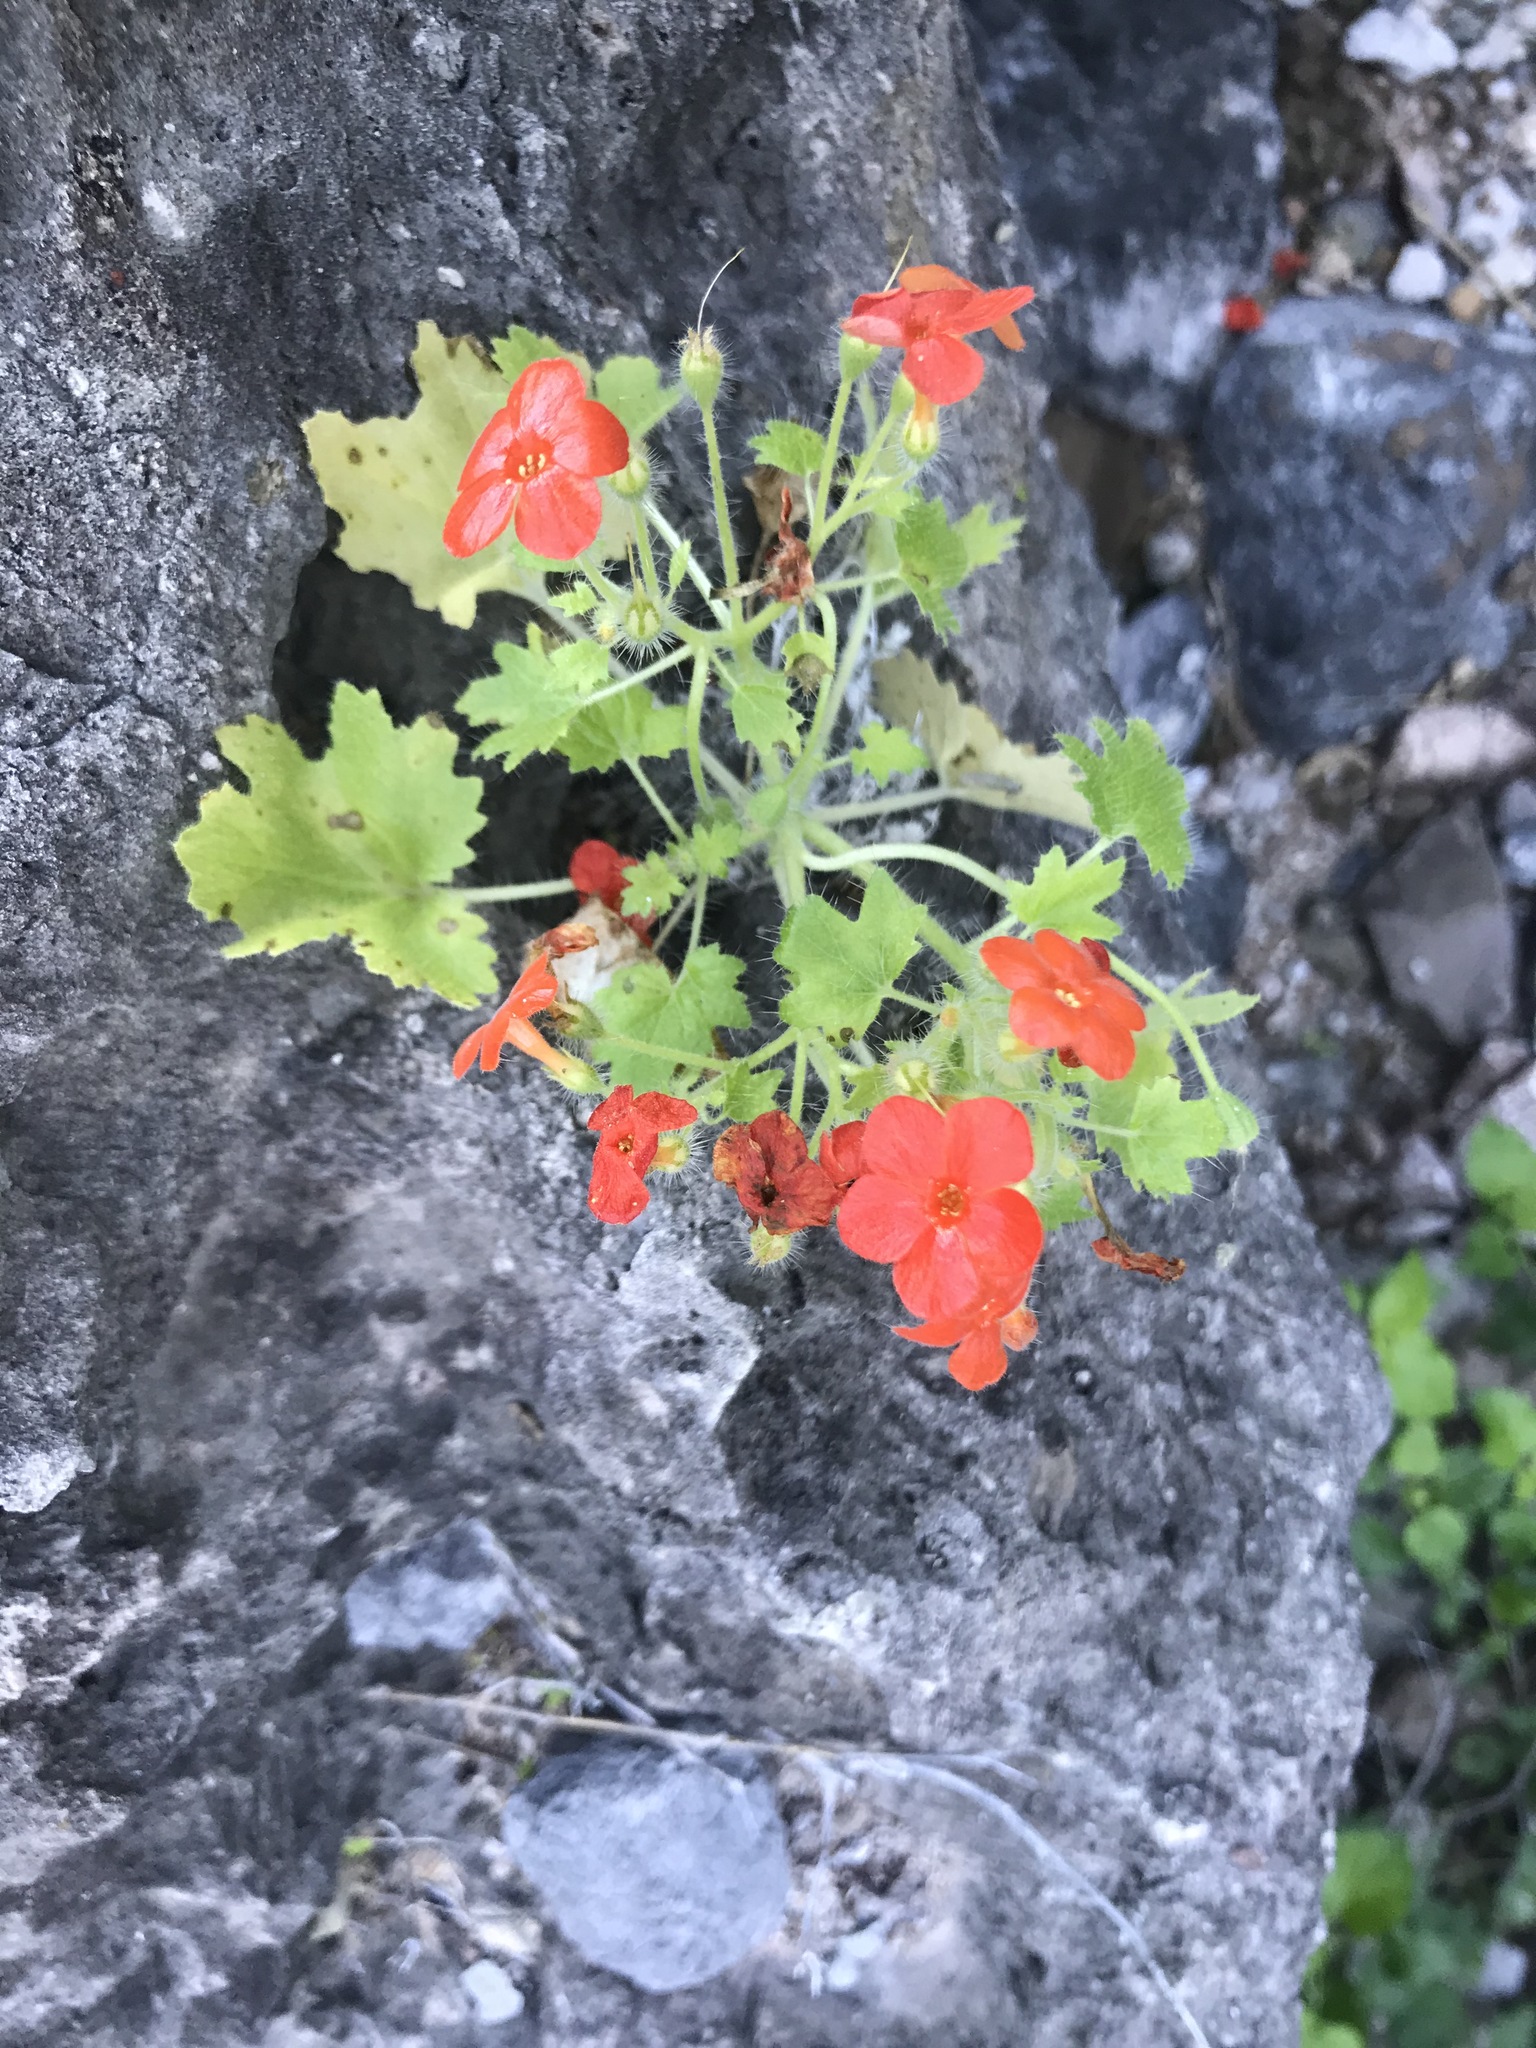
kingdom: Plantae
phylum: Tracheophyta
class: Magnoliopsida
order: Cornales
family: Loasaceae
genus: Eucnide
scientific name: Eucnide aurea
